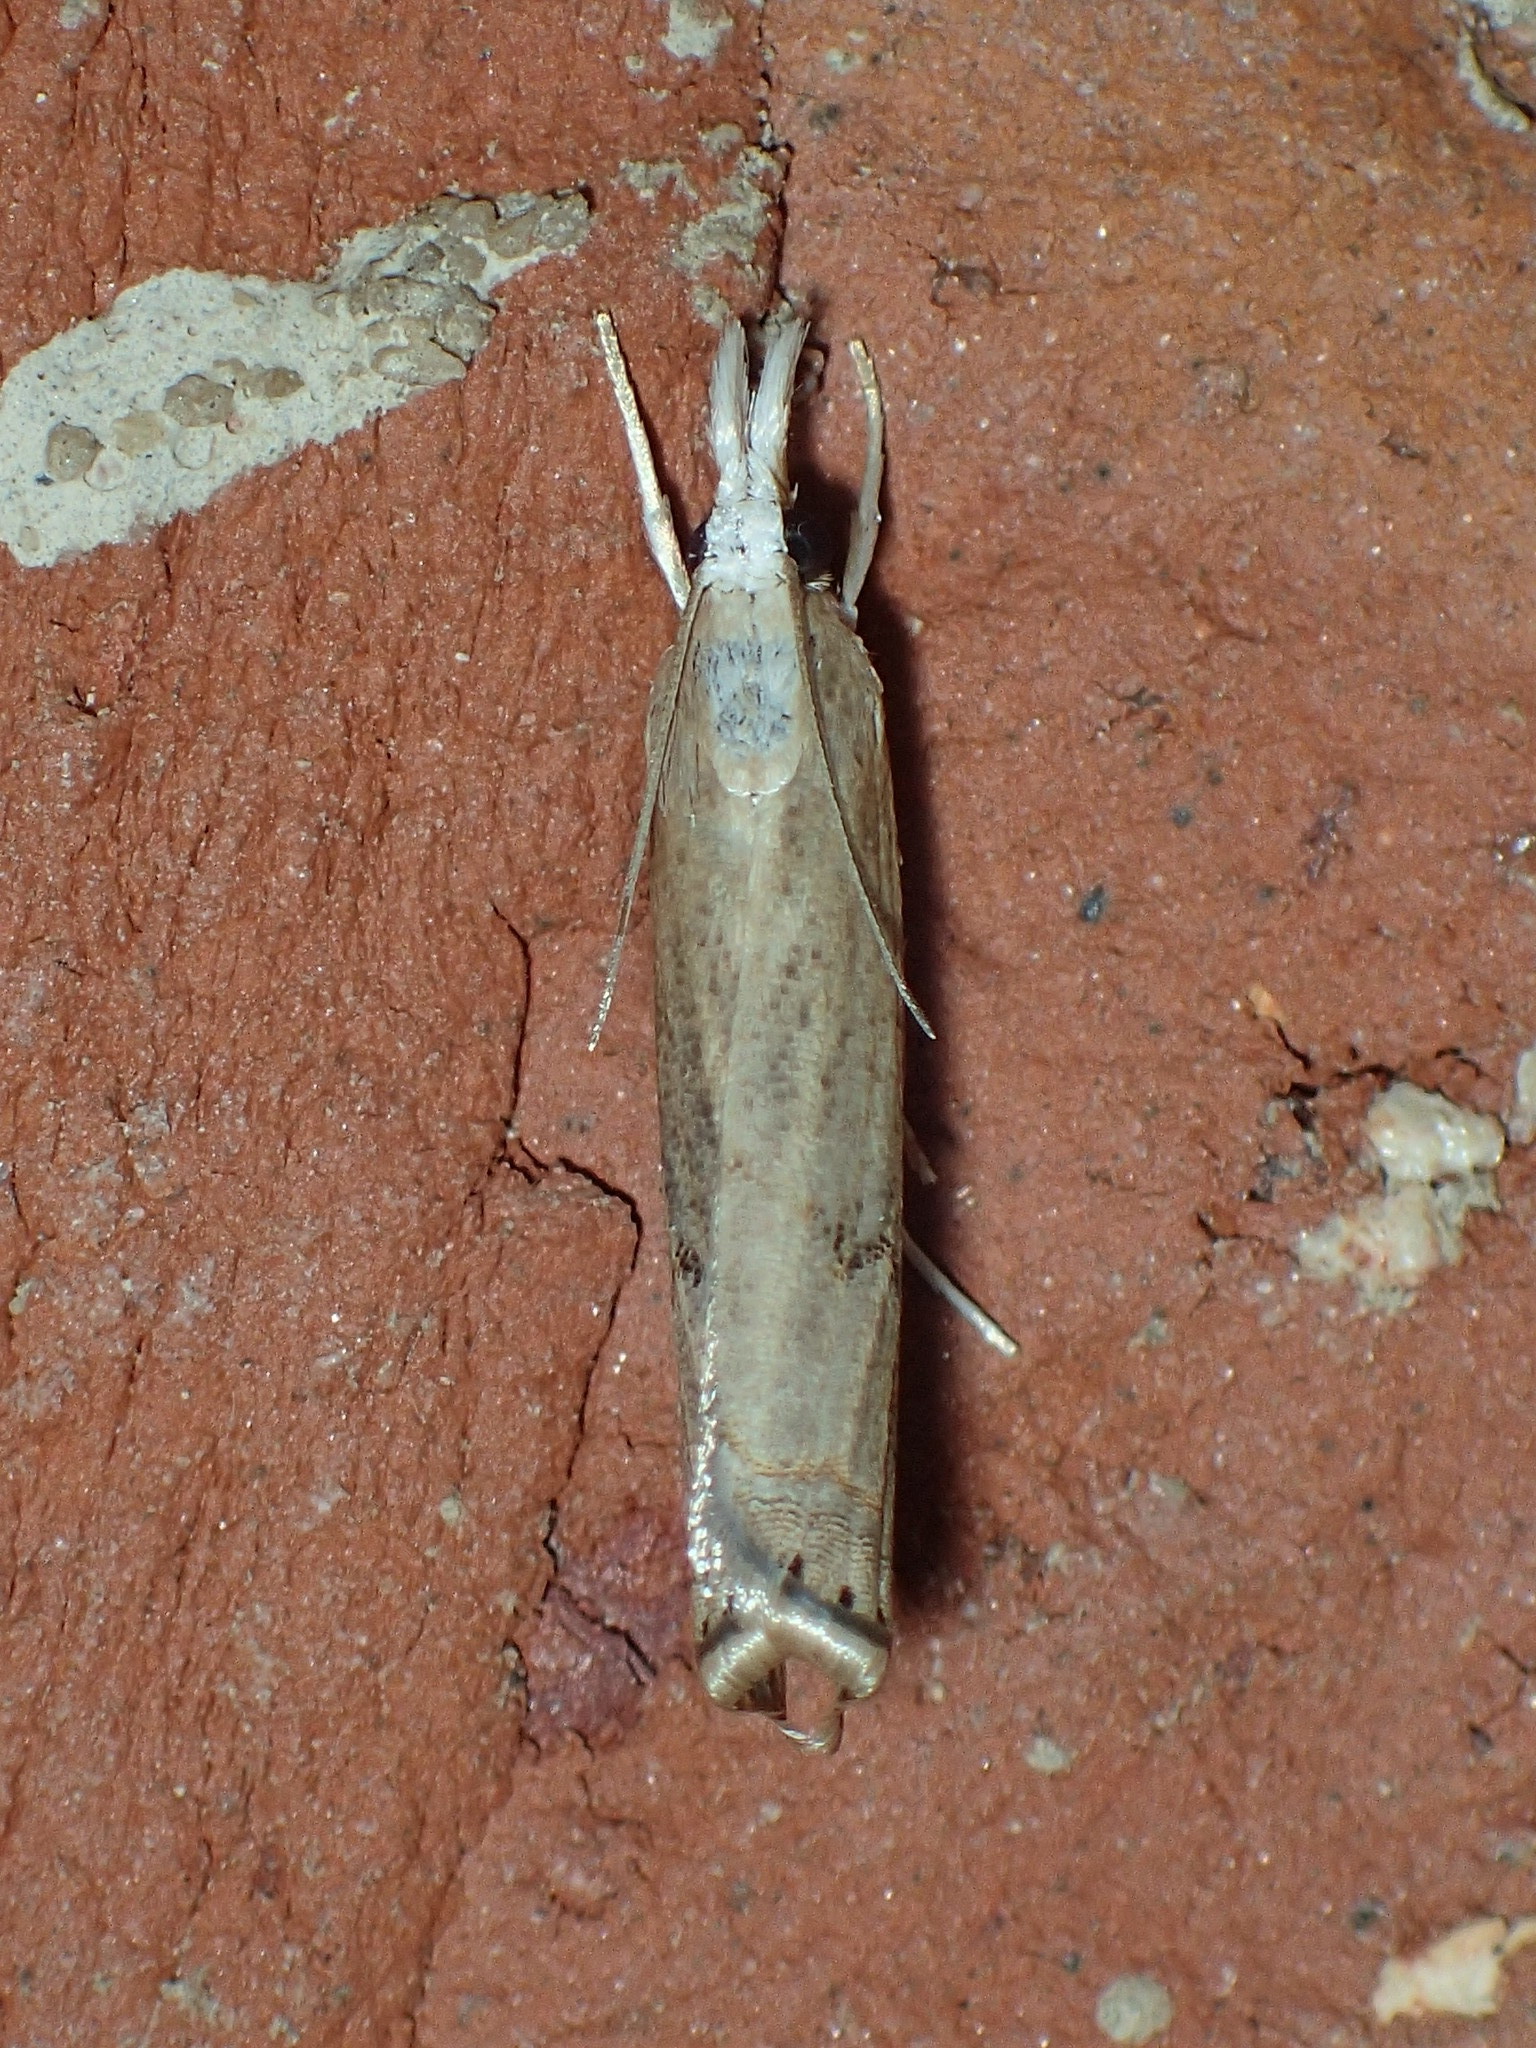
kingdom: Animalia
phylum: Arthropoda
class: Insecta
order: Lepidoptera
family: Crambidae
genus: Parapediasia
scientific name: Parapediasia teterellus
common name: Bluegrass webworm moth
